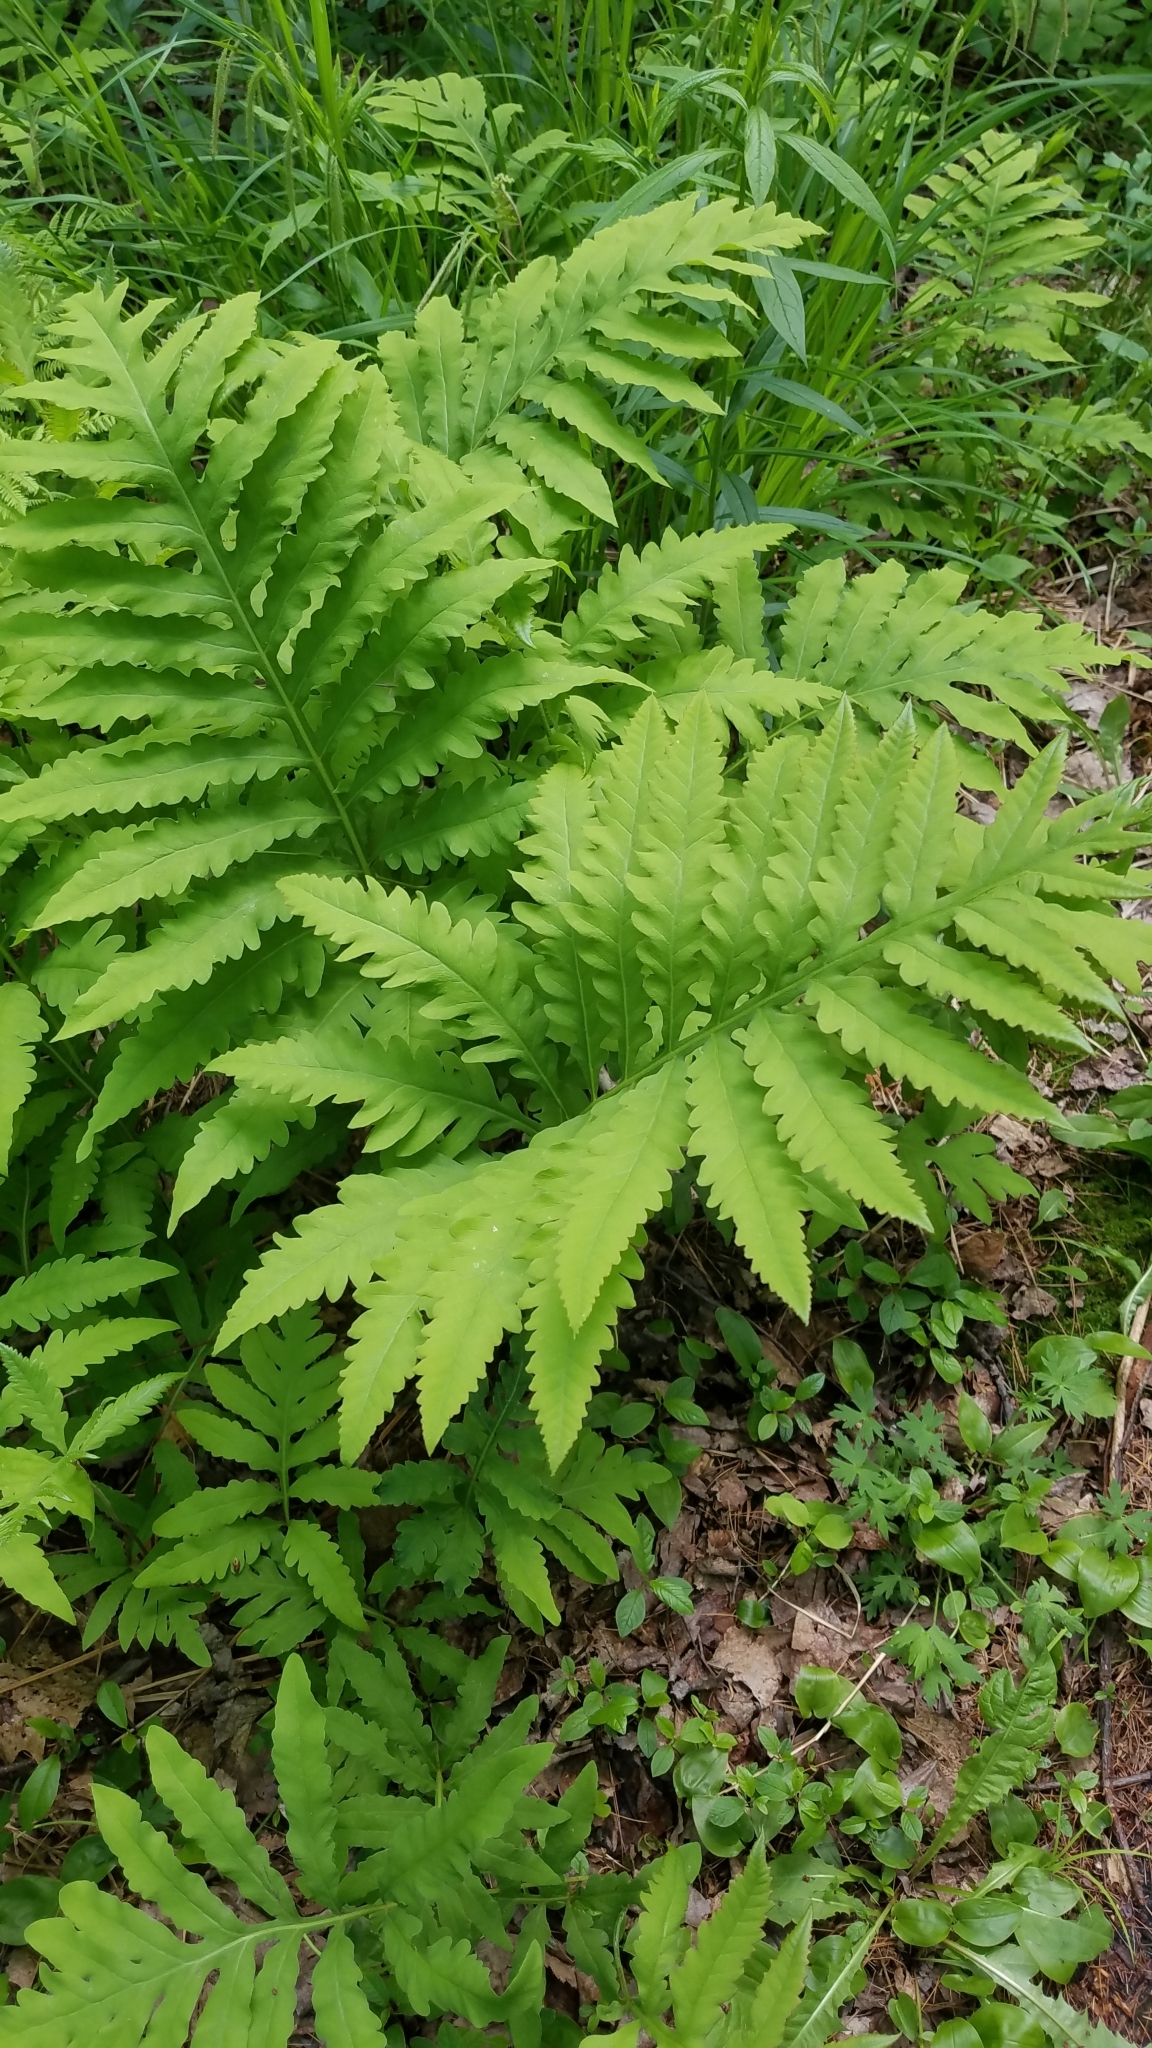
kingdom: Plantae
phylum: Tracheophyta
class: Polypodiopsida
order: Polypodiales
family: Onocleaceae
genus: Onoclea
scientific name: Onoclea sensibilis
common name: Sensitive fern
